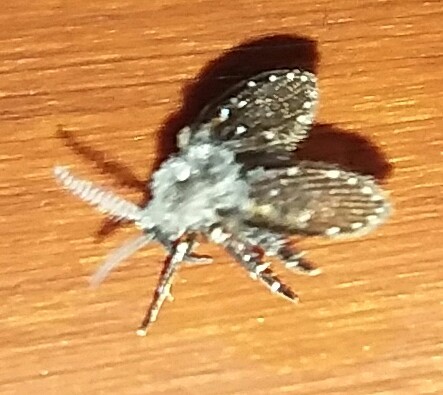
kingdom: Animalia
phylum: Arthropoda
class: Insecta
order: Diptera
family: Psychodidae
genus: Clogmia
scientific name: Clogmia albipunctatus
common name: White-spotted moth fly
